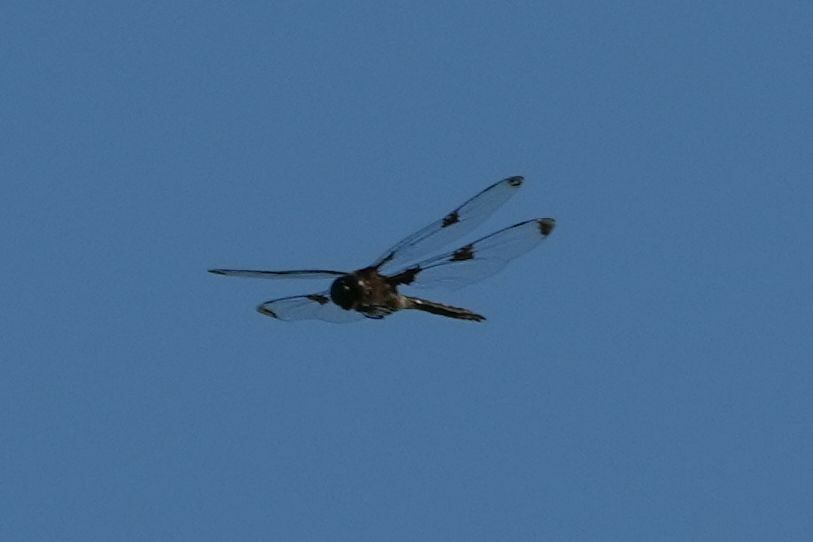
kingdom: Animalia
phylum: Arthropoda
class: Insecta
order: Odonata
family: Corduliidae
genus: Epitheca
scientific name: Epitheca princeps
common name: Prince baskettail
